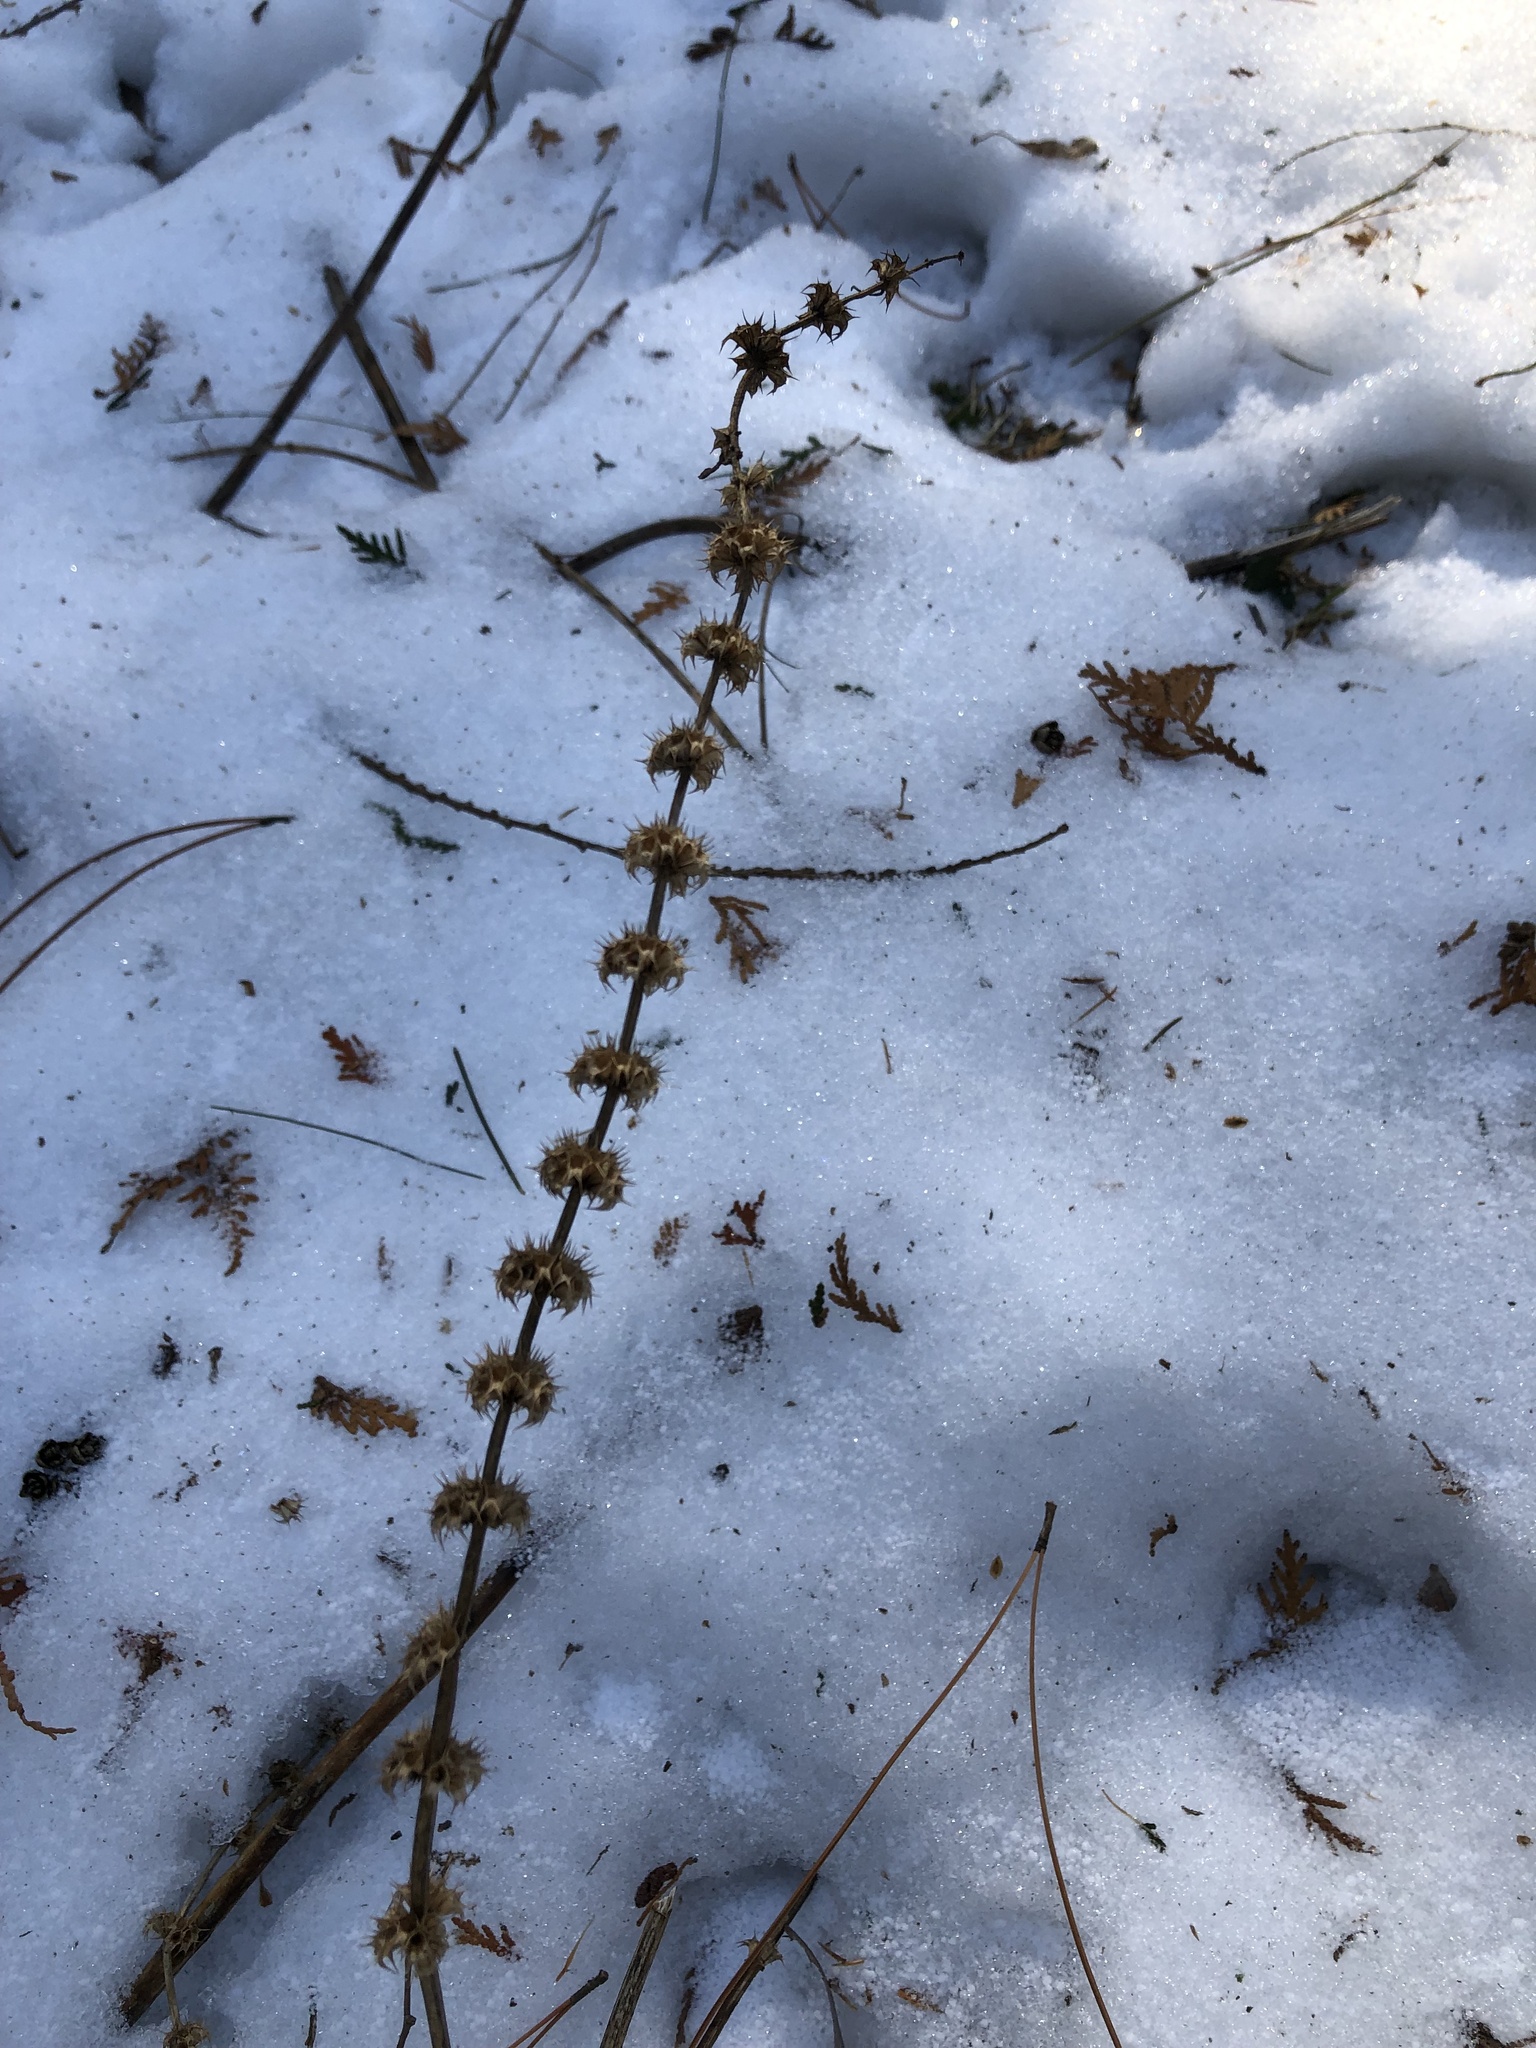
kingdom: Plantae
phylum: Tracheophyta
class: Magnoliopsida
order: Lamiales
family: Lamiaceae
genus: Leonurus
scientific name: Leonurus cardiaca
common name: Motherwort
